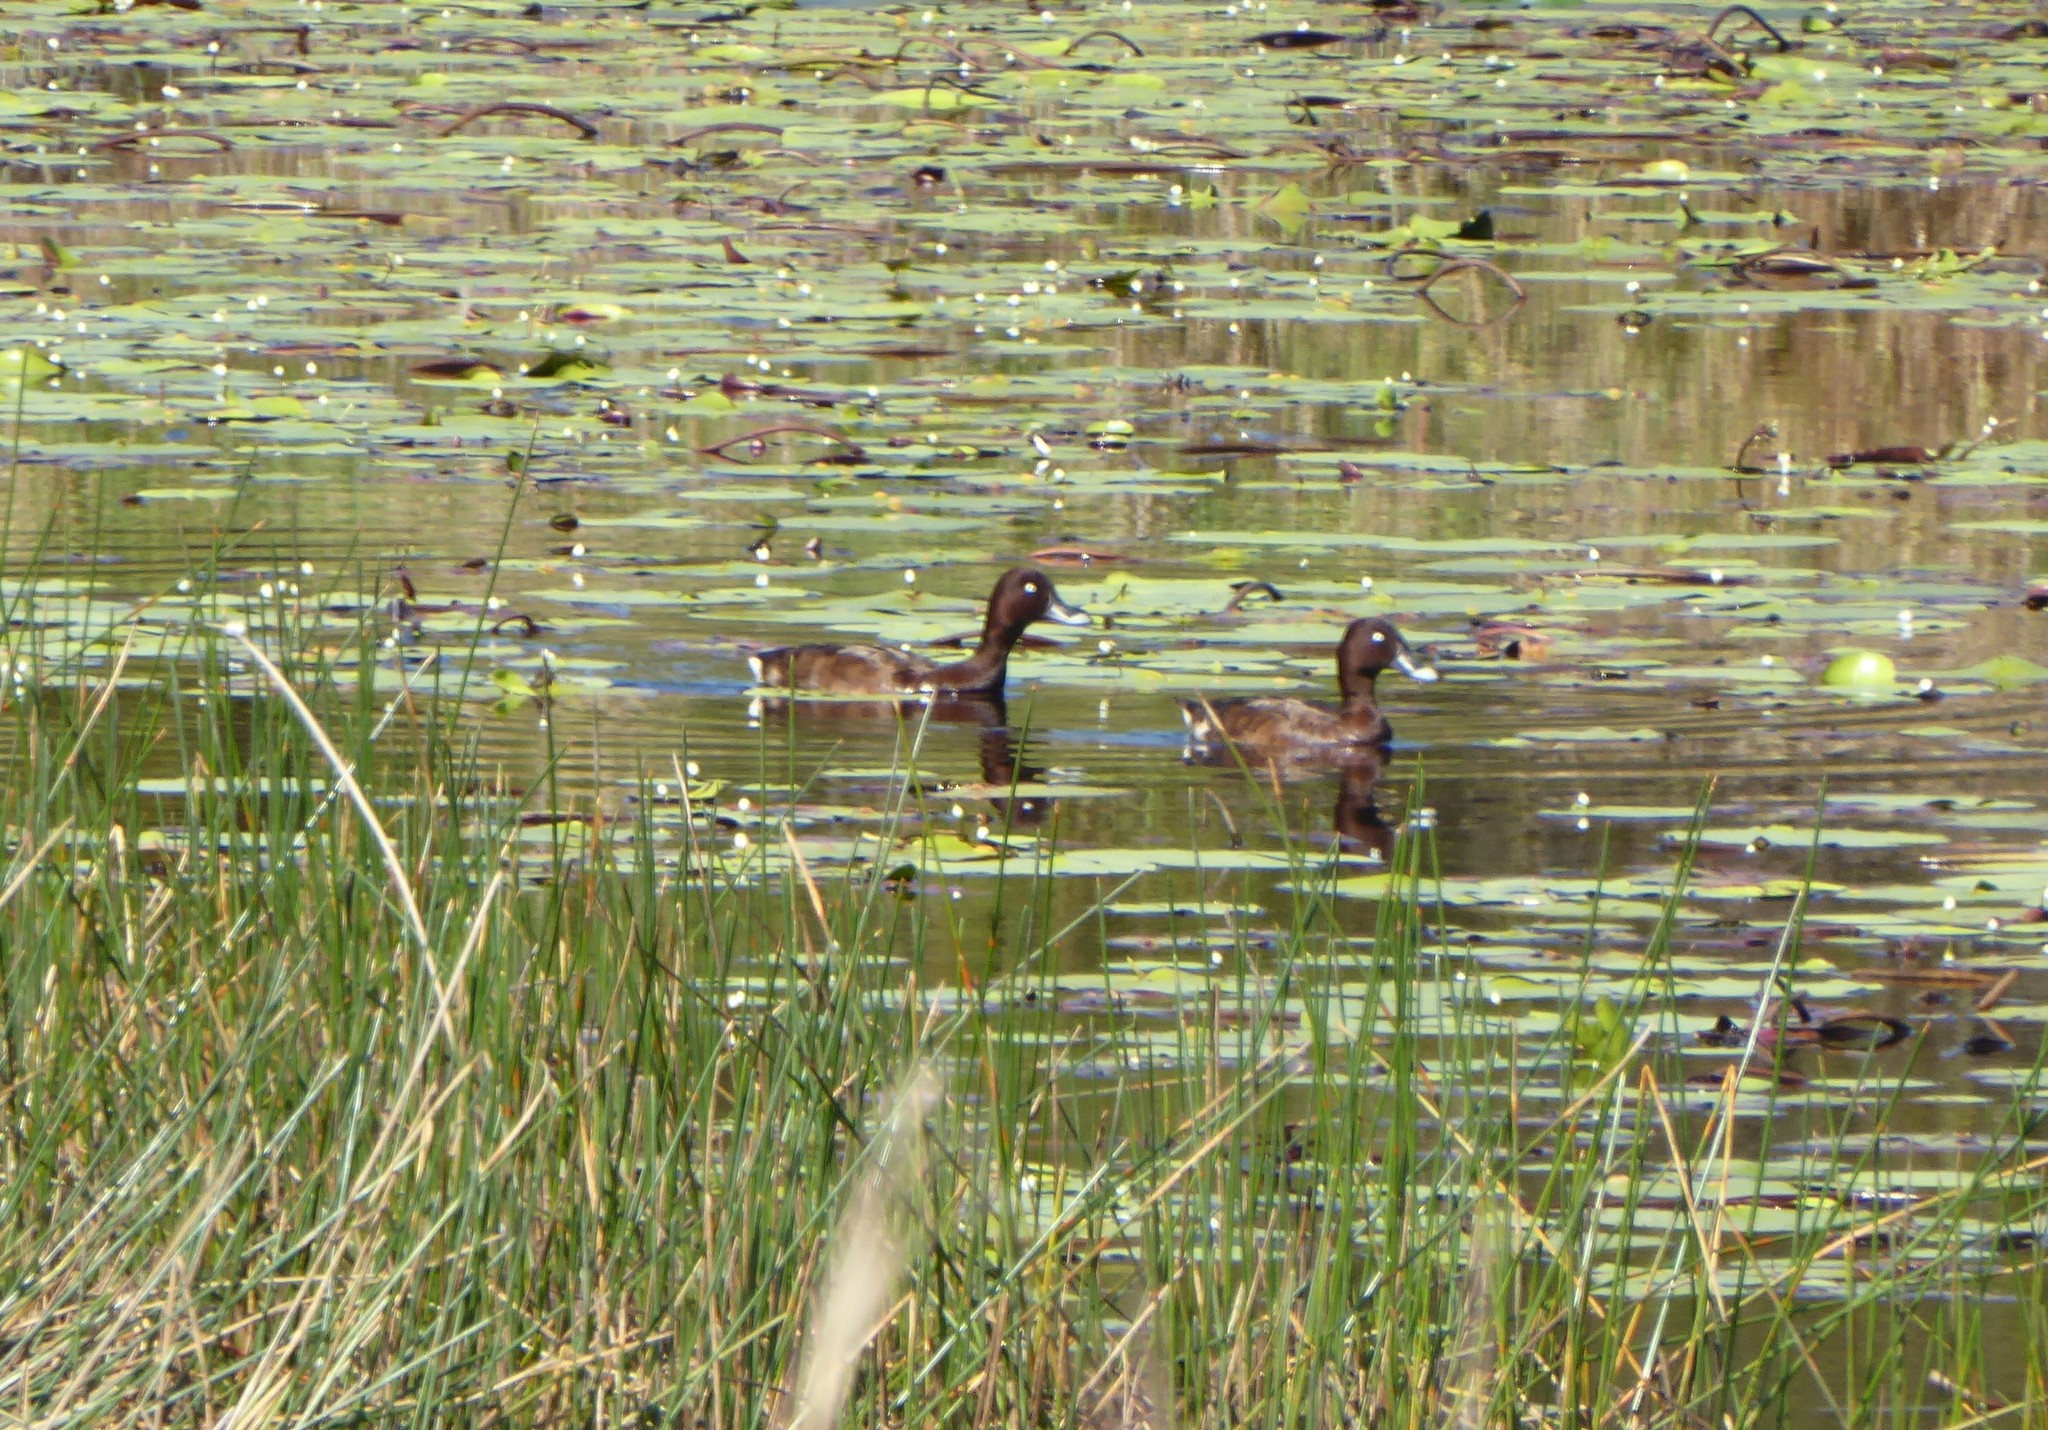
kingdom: Animalia
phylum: Chordata
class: Aves
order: Anseriformes
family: Anatidae
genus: Aythya
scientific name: Aythya australis
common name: Hardhead
